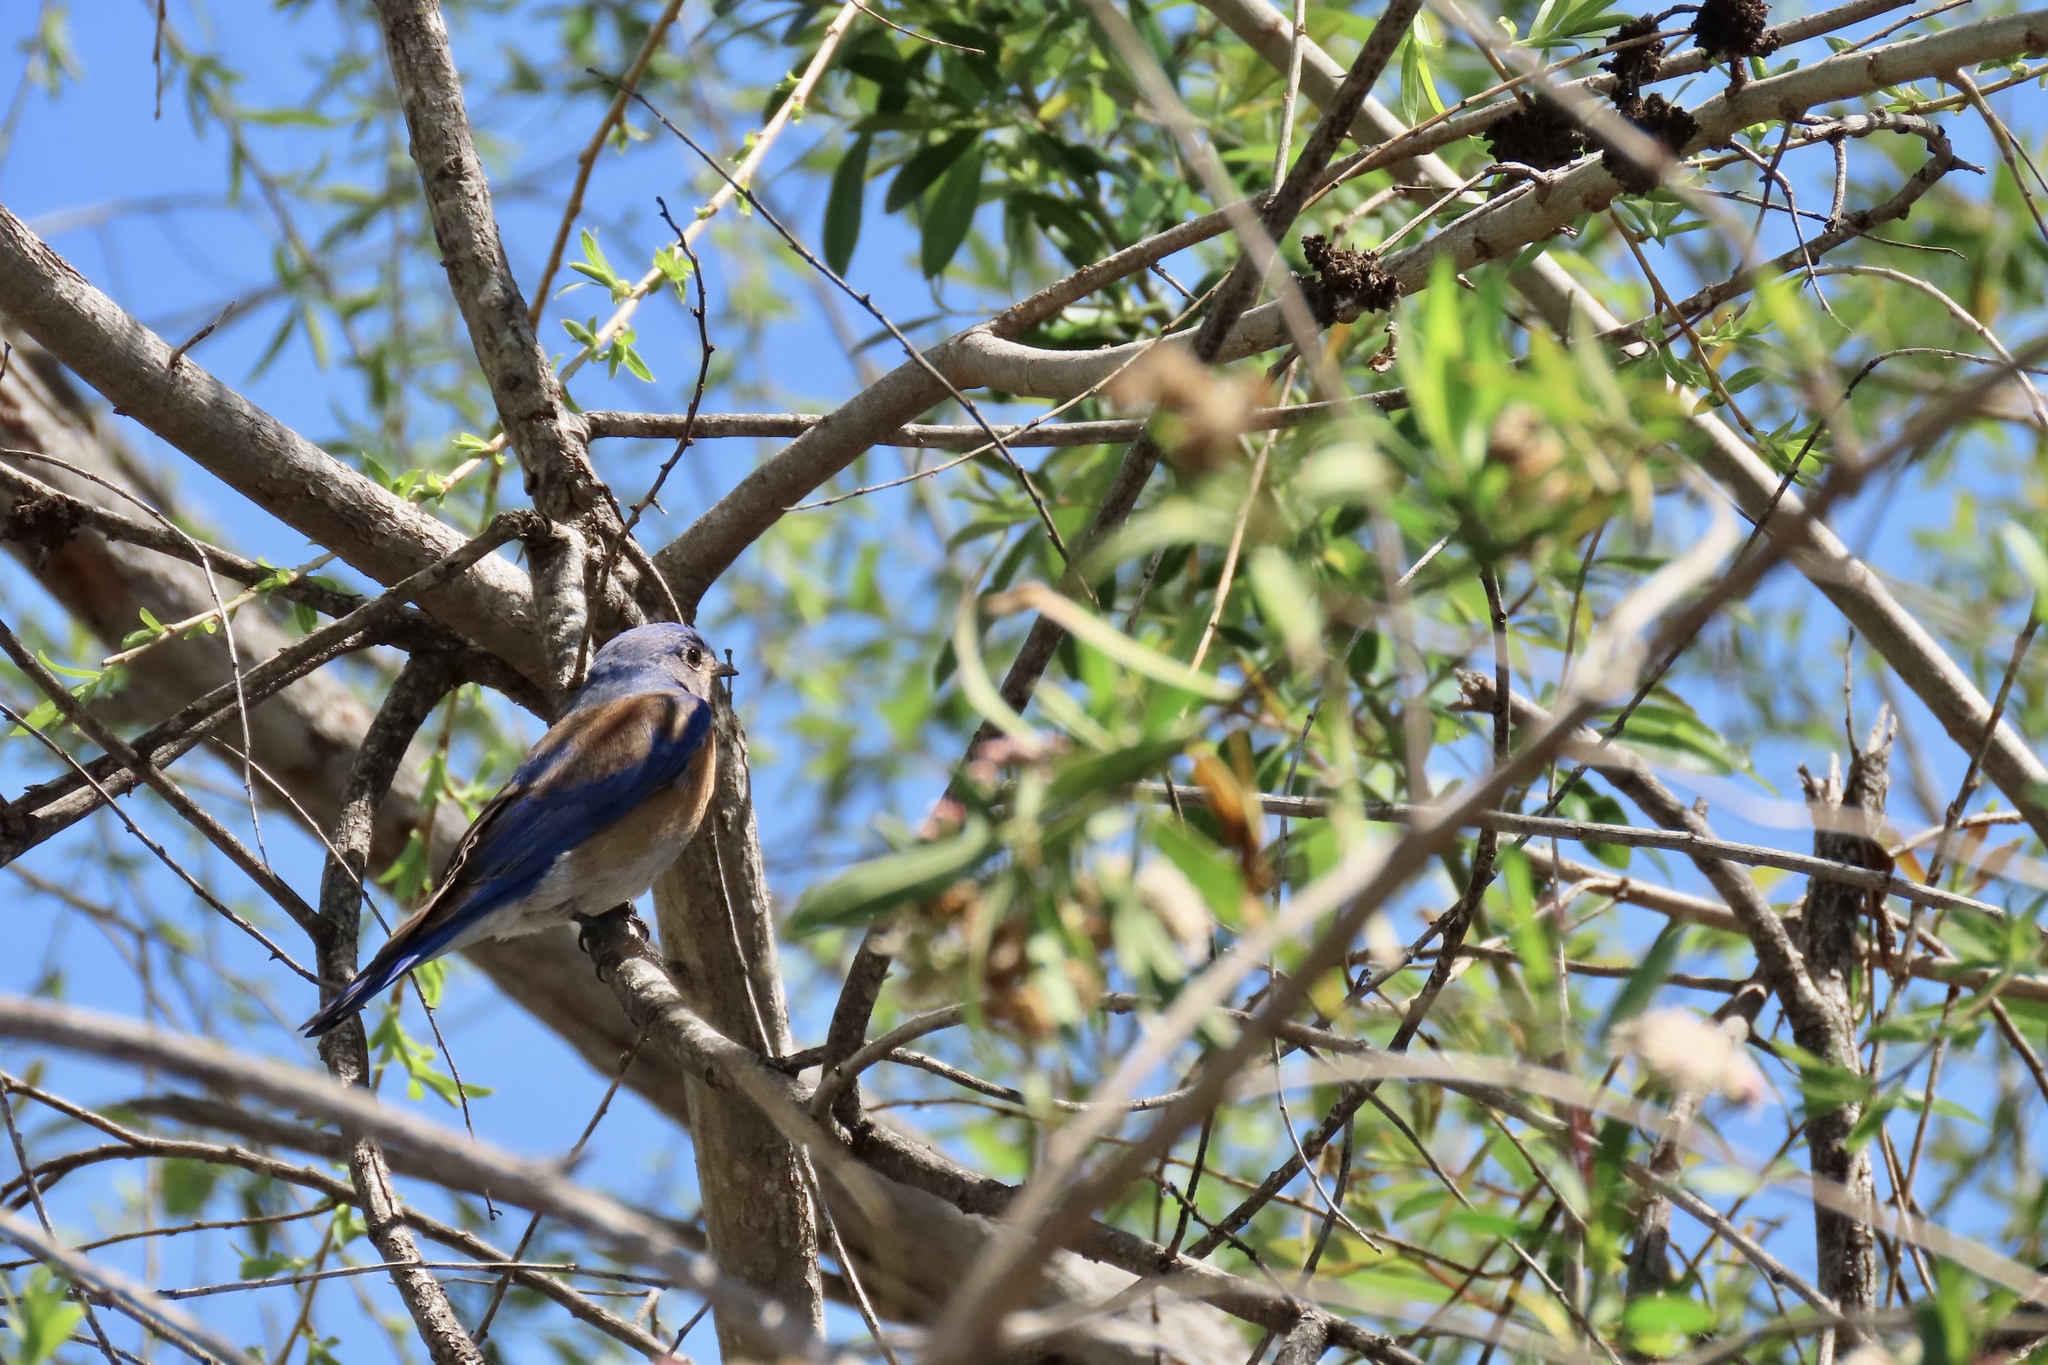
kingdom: Animalia
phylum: Chordata
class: Aves
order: Passeriformes
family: Turdidae
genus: Sialia
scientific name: Sialia mexicana
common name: Western bluebird
